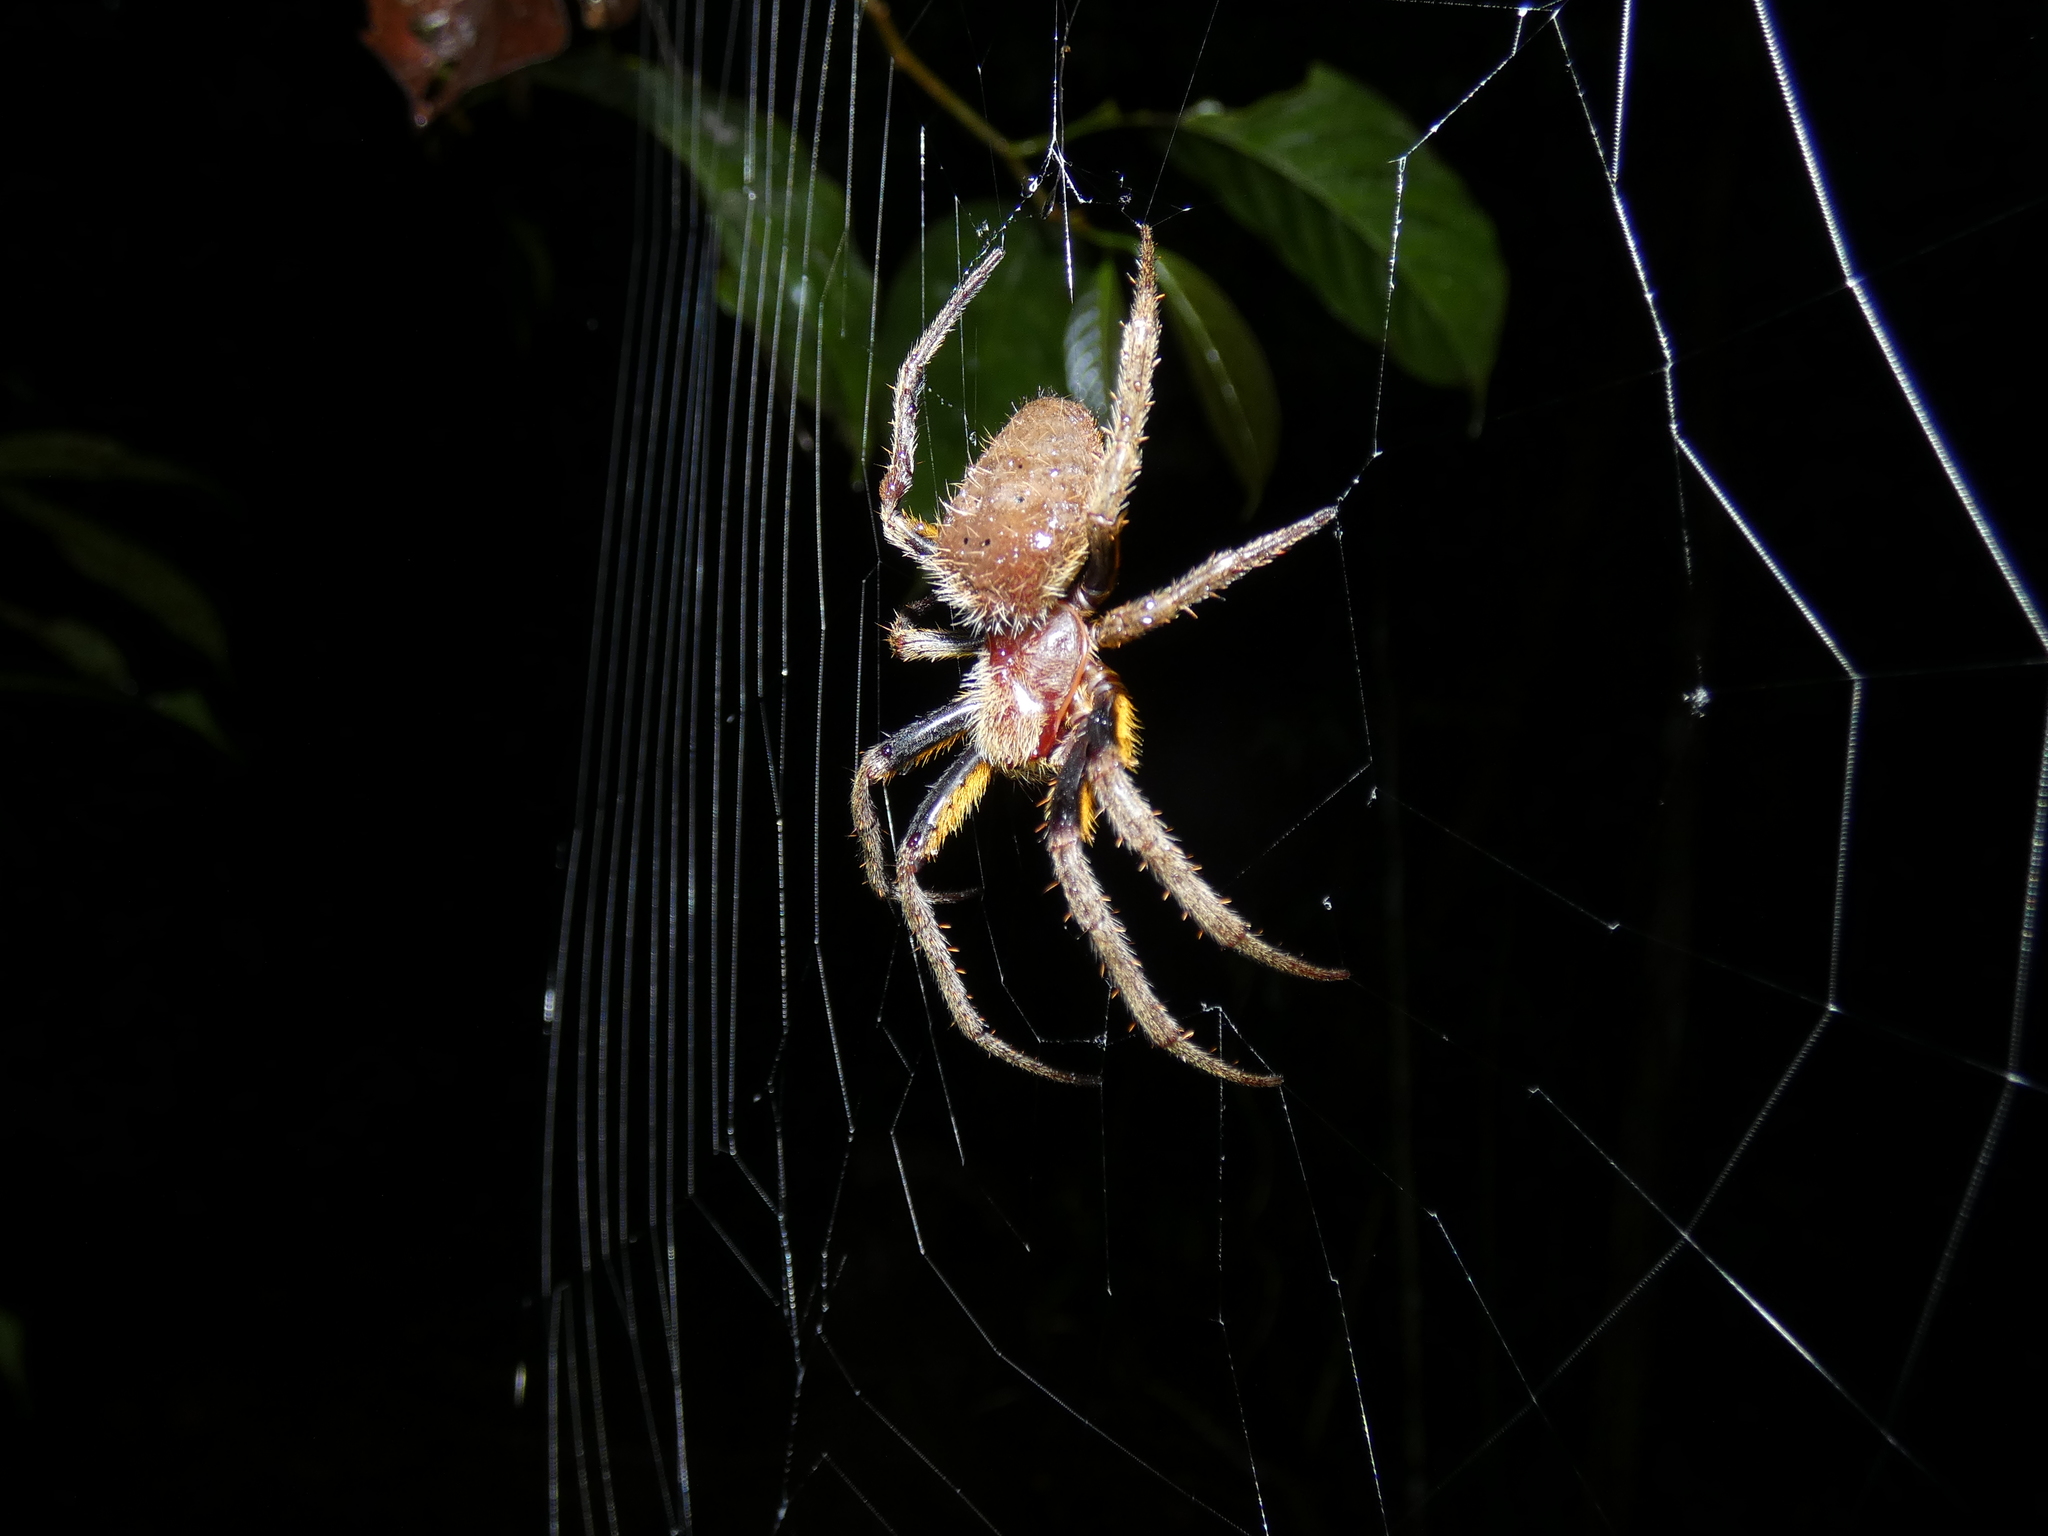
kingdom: Animalia
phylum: Arthropoda
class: Arachnida
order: Araneae
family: Araneidae
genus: Eriophora
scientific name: Eriophora fuliginea
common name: Orb weavers
